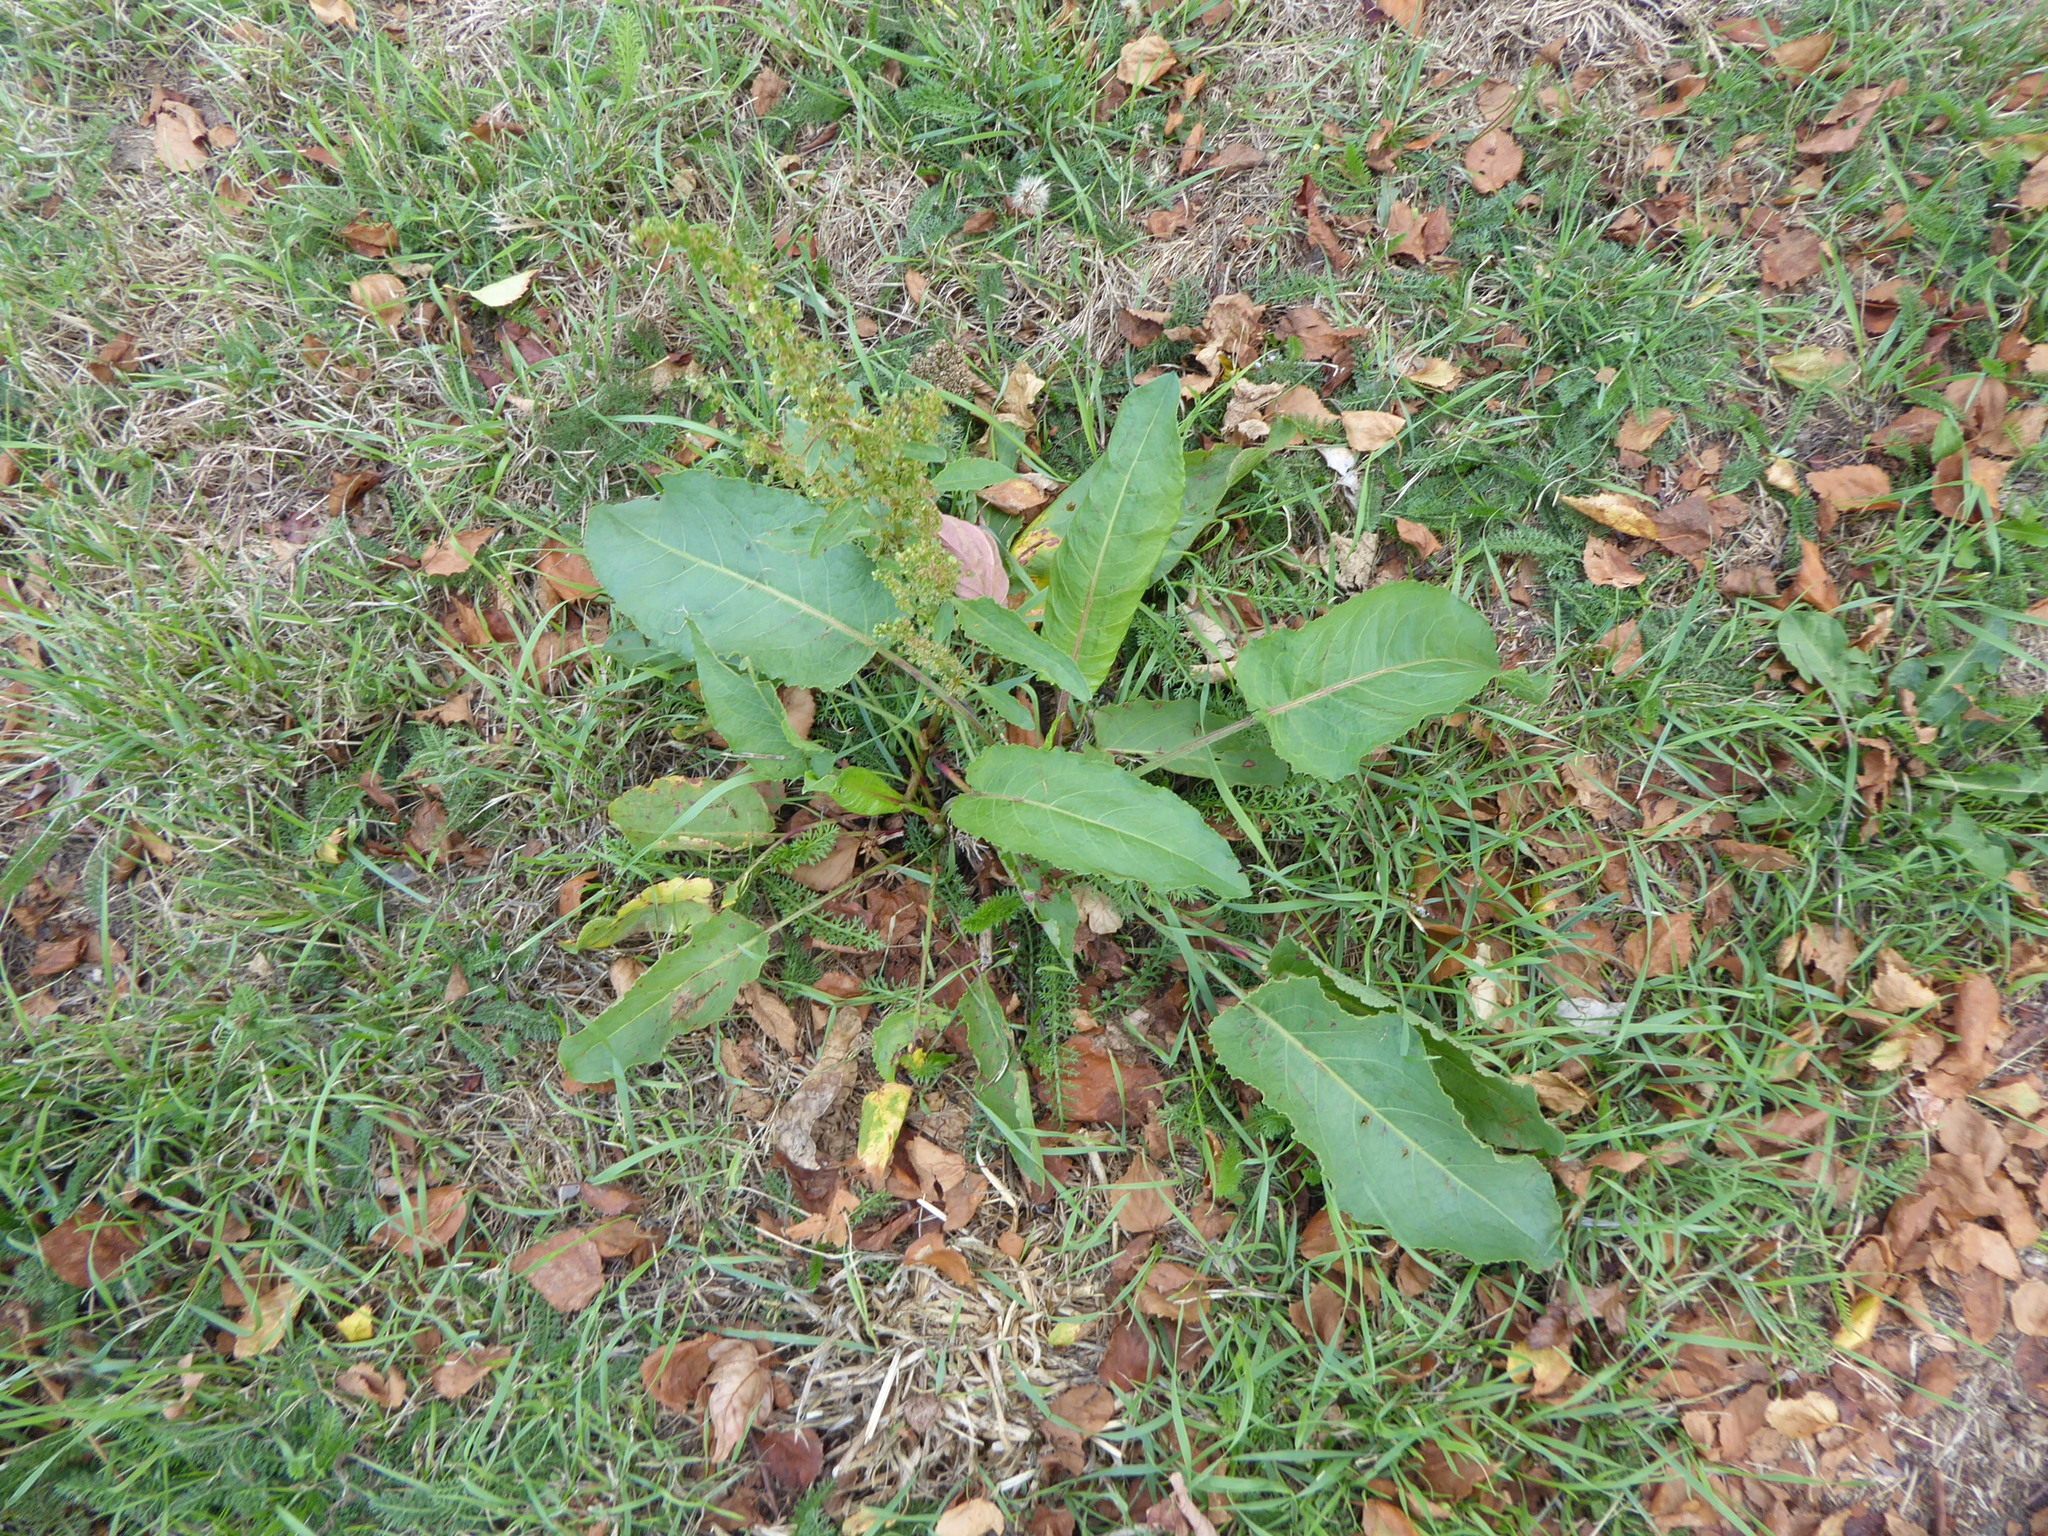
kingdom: Plantae
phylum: Tracheophyta
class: Magnoliopsida
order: Caryophyllales
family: Polygonaceae
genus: Rumex
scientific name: Rumex obtusifolius
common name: Bitter dock
